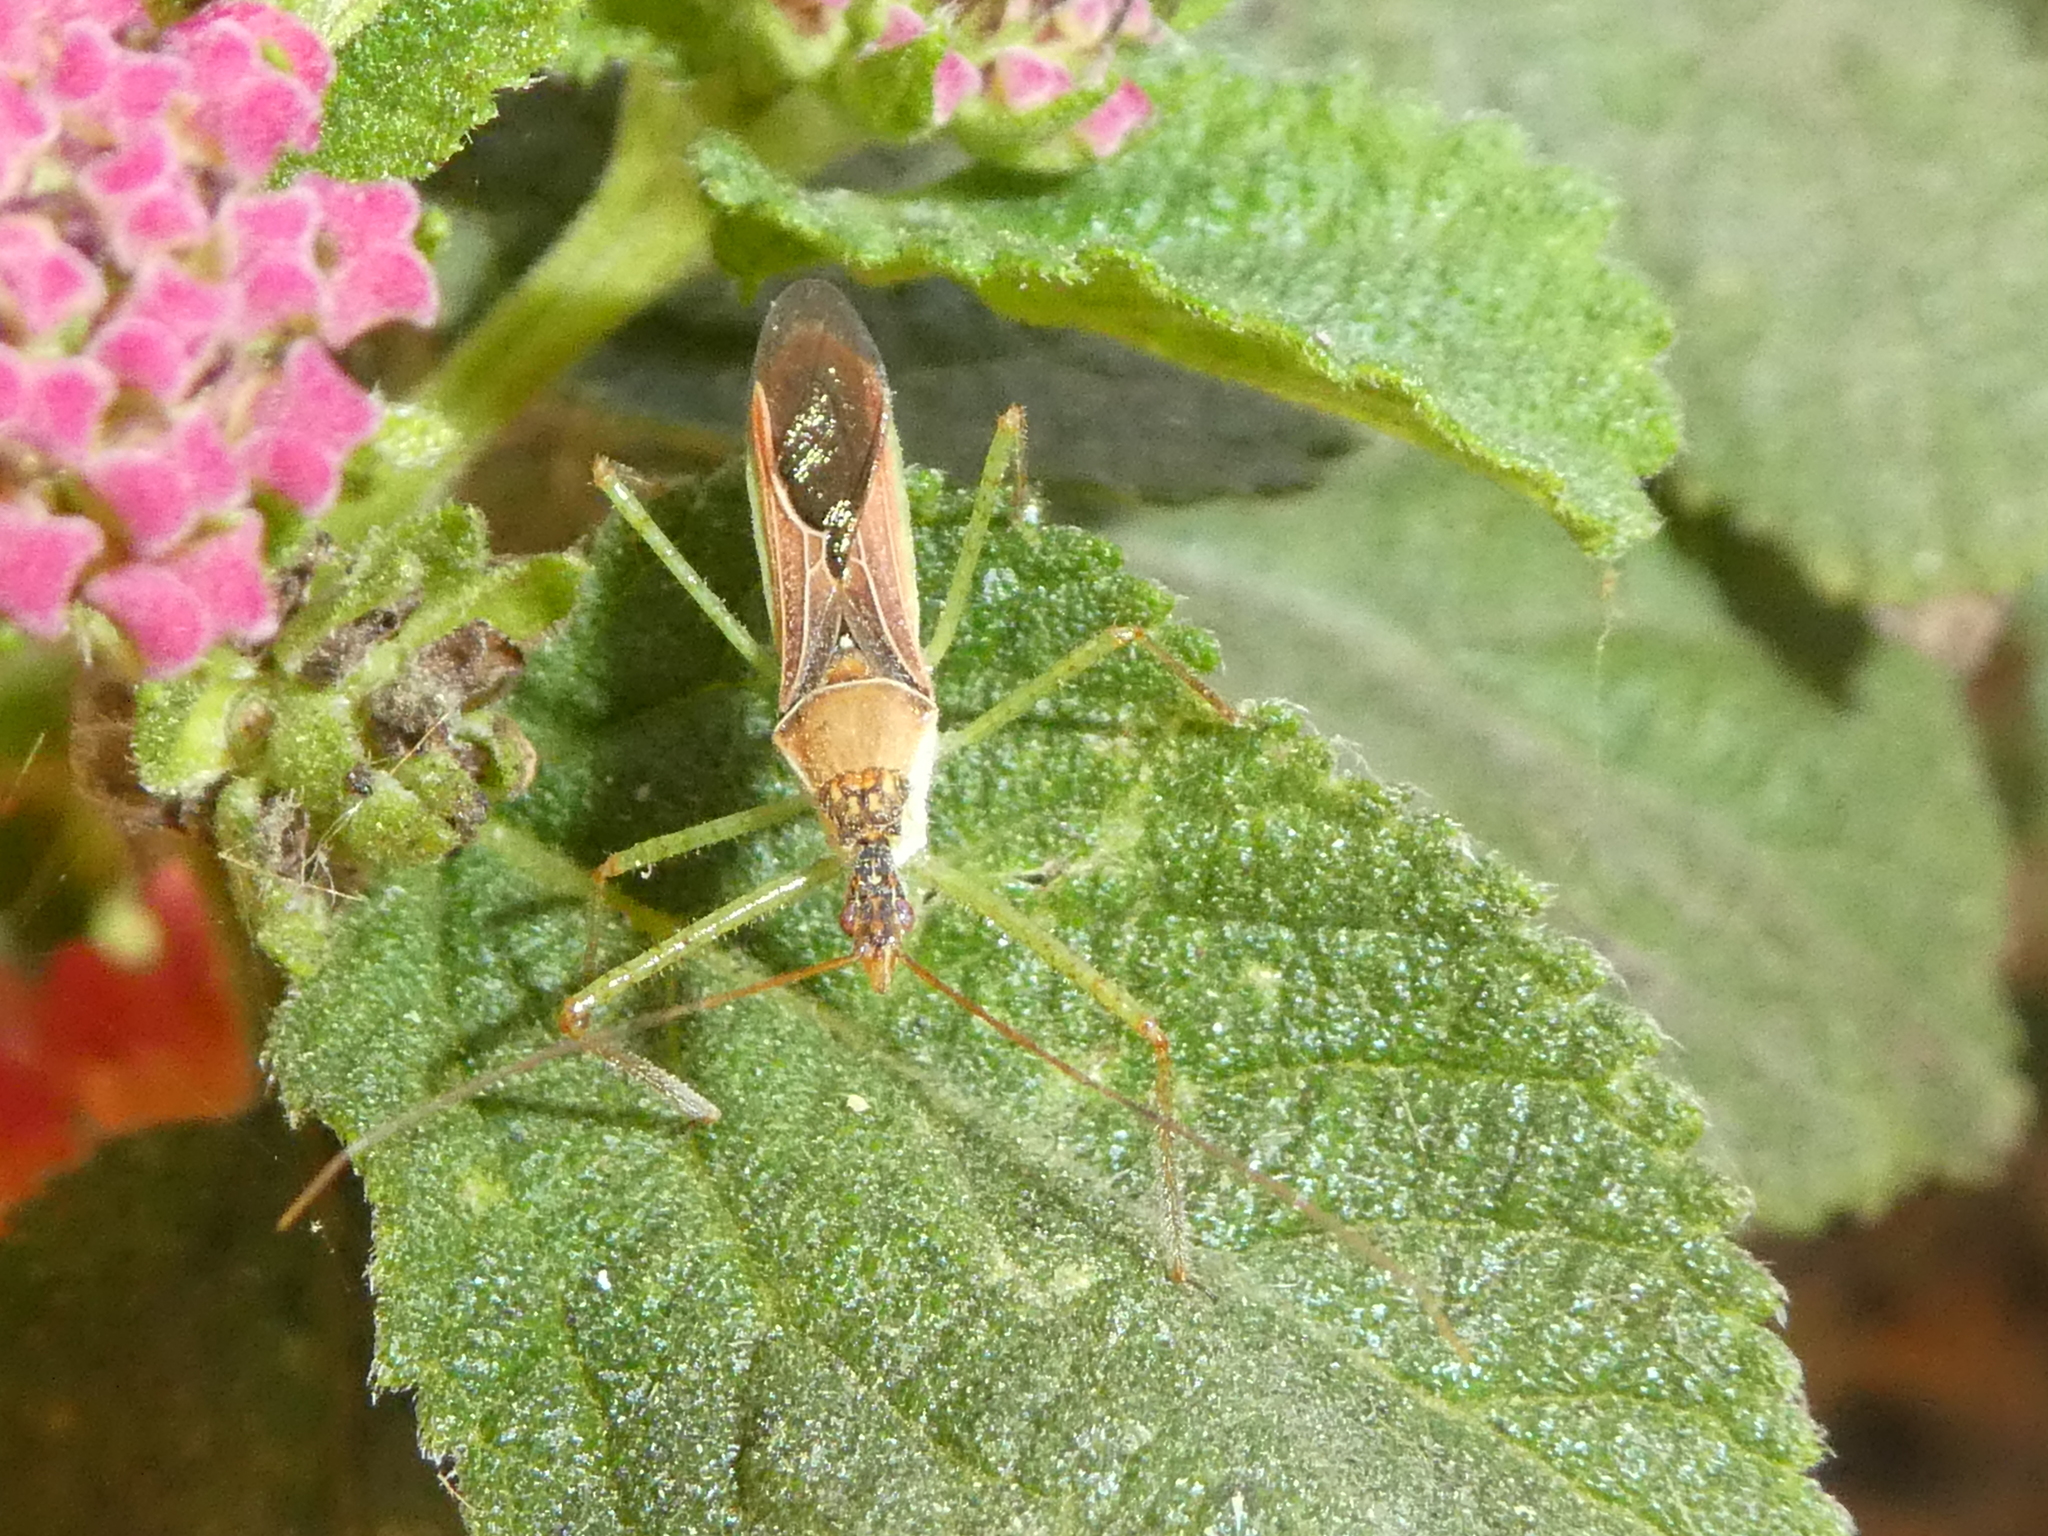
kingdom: Animalia
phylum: Arthropoda
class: Insecta
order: Hemiptera
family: Reduviidae
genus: Zelus
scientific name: Zelus renardii
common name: Assassin bug
